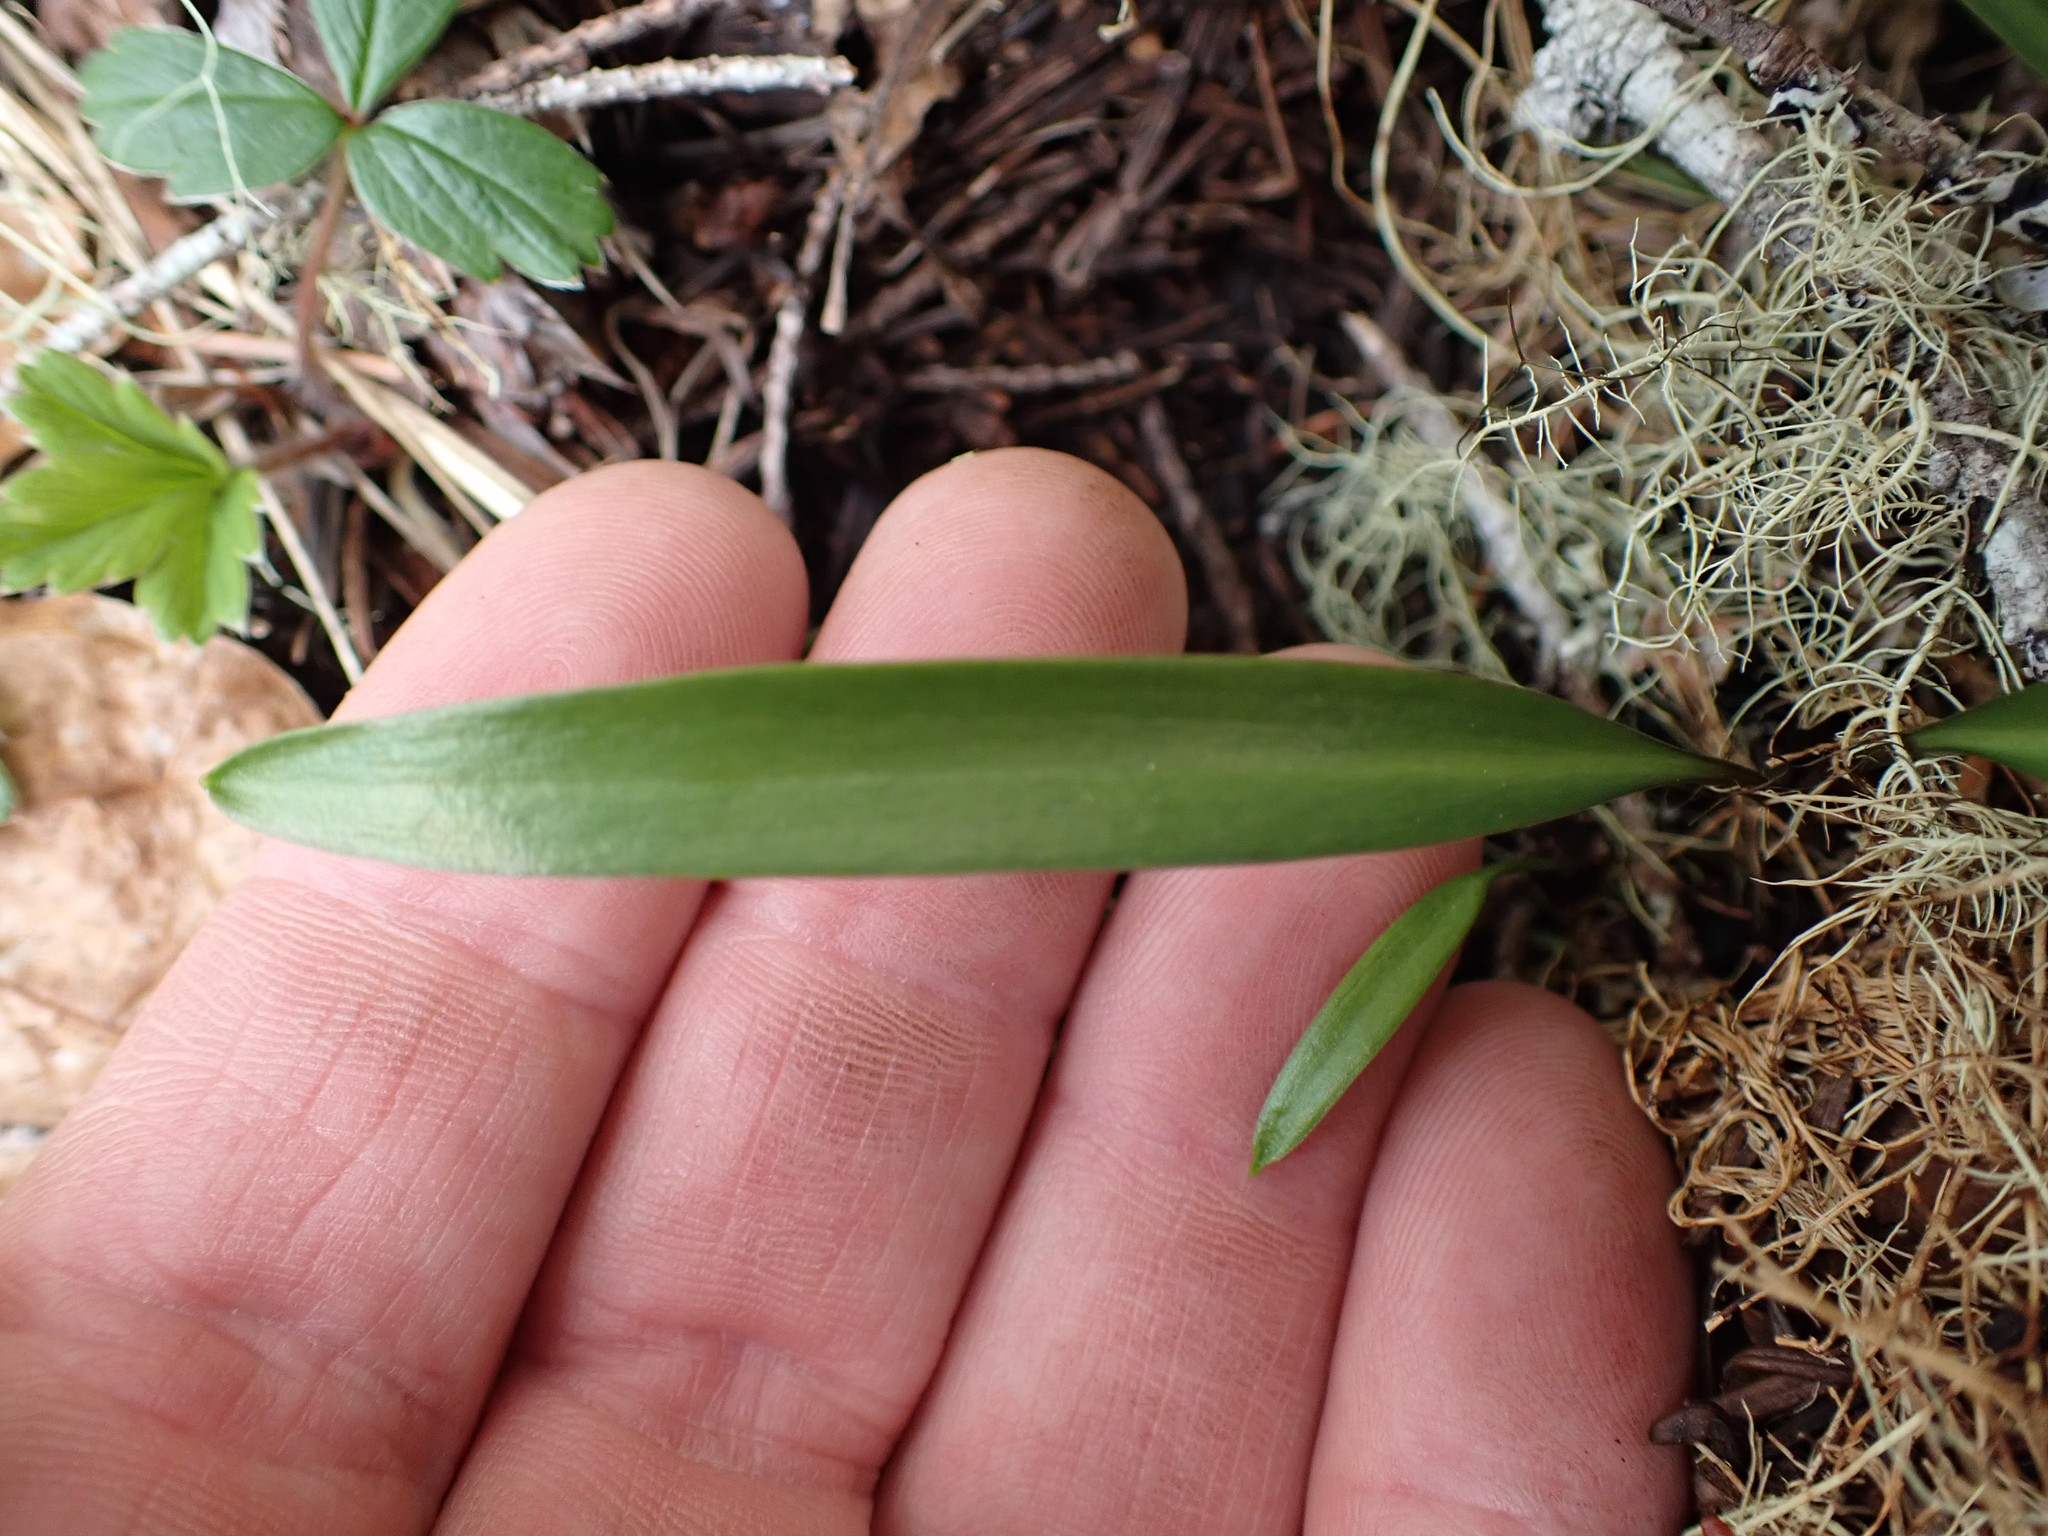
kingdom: Plantae
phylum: Tracheophyta
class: Liliopsida
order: Liliales
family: Liliaceae
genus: Fritillaria
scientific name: Fritillaria affinis
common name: Ojai fritillary
